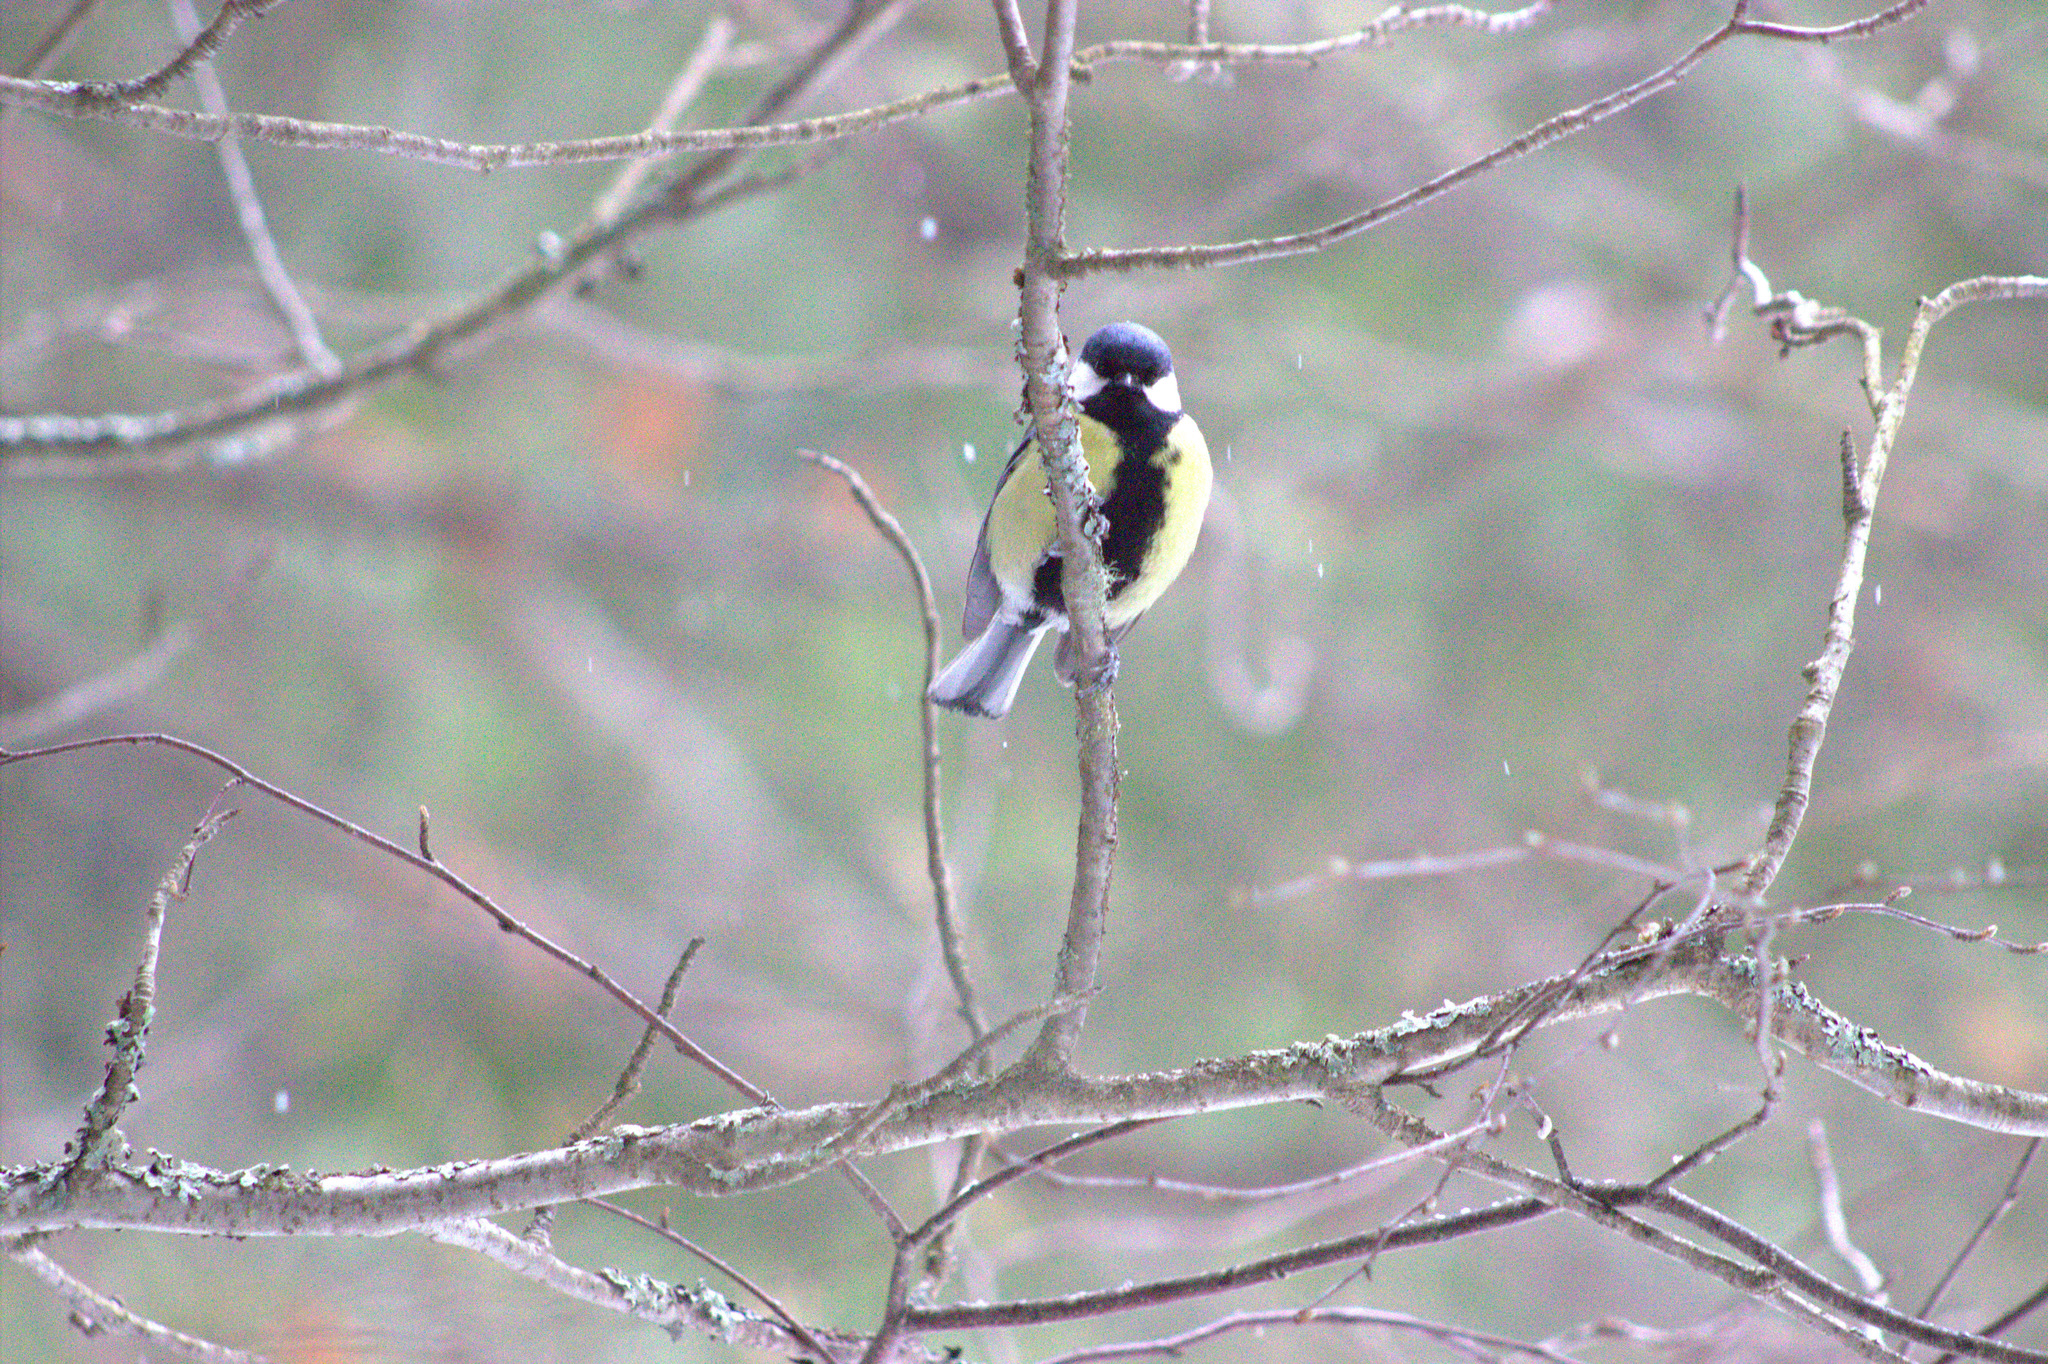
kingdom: Animalia
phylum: Chordata
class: Aves
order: Passeriformes
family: Paridae
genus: Parus
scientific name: Parus major
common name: Great tit
